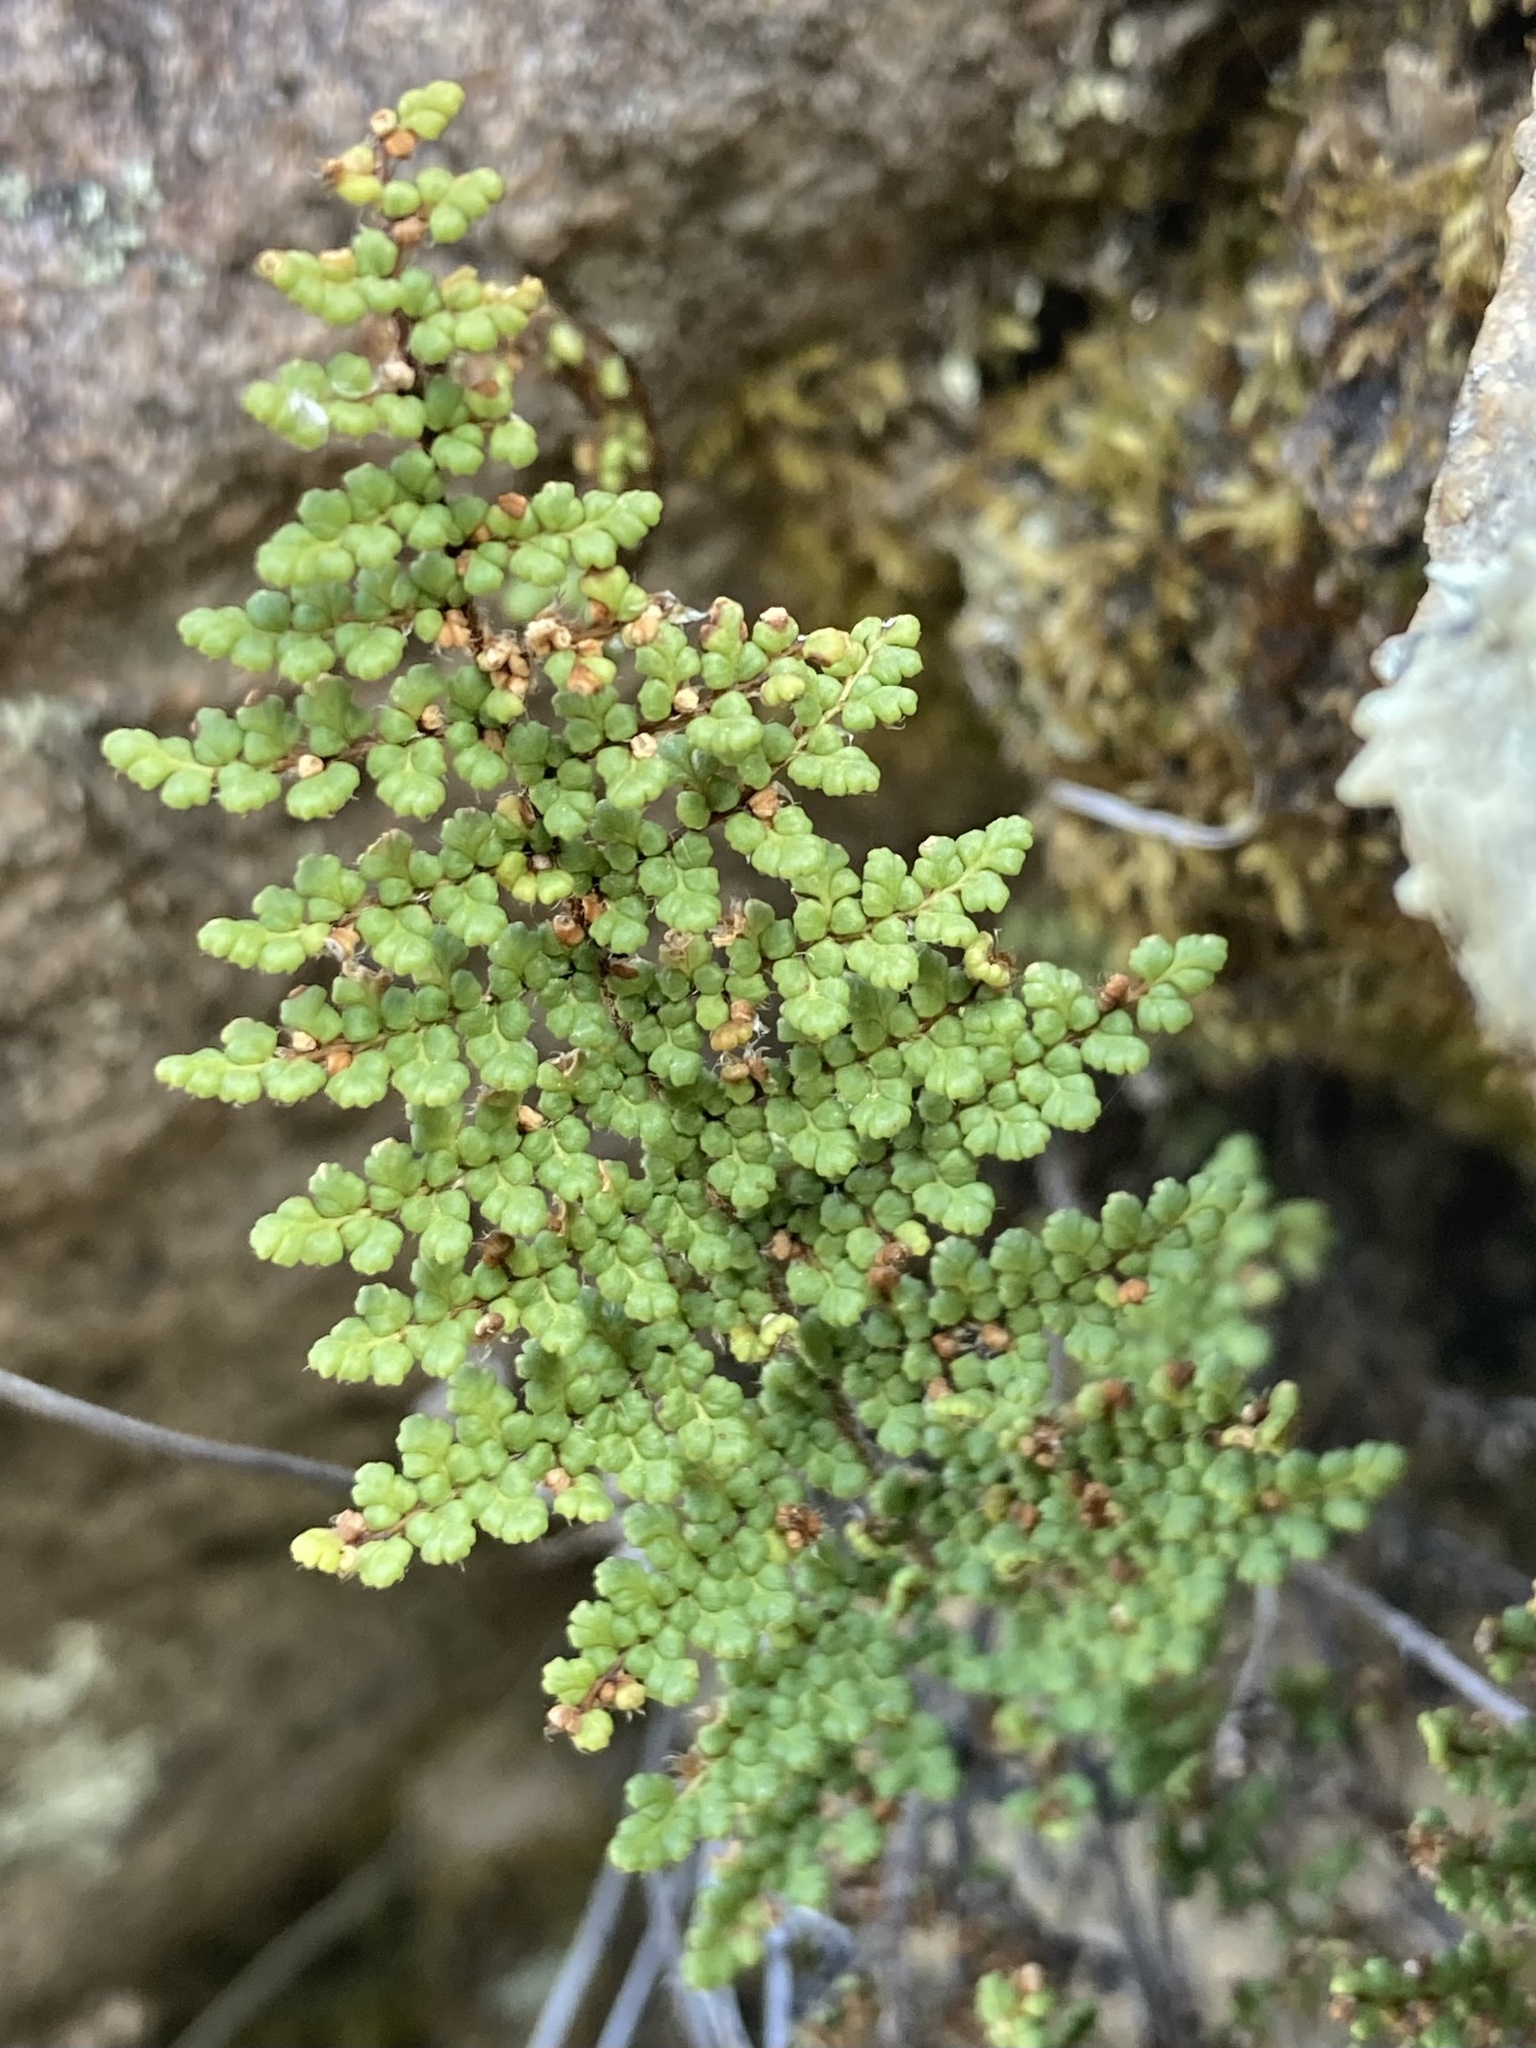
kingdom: Plantae
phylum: Tracheophyta
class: Polypodiopsida
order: Polypodiales
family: Pteridaceae
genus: Myriopteris
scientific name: Myriopteris fendleri
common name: Fendler's lip fern
